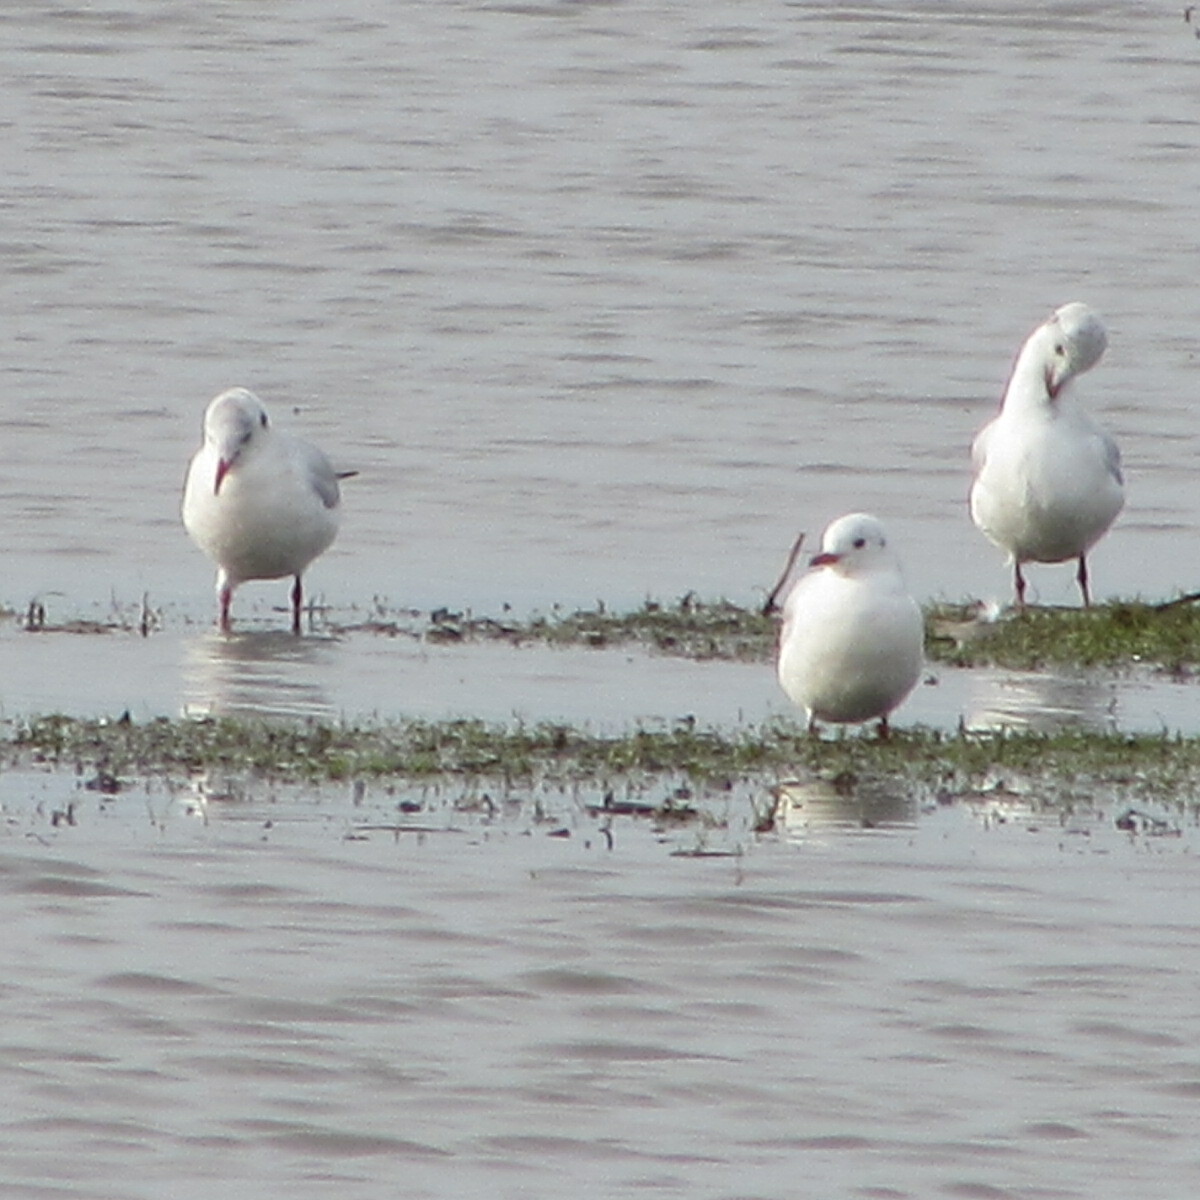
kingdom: Animalia
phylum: Chordata
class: Aves
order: Charadriiformes
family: Laridae
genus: Chroicocephalus
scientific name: Chroicocephalus ridibundus
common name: Black-headed gull
